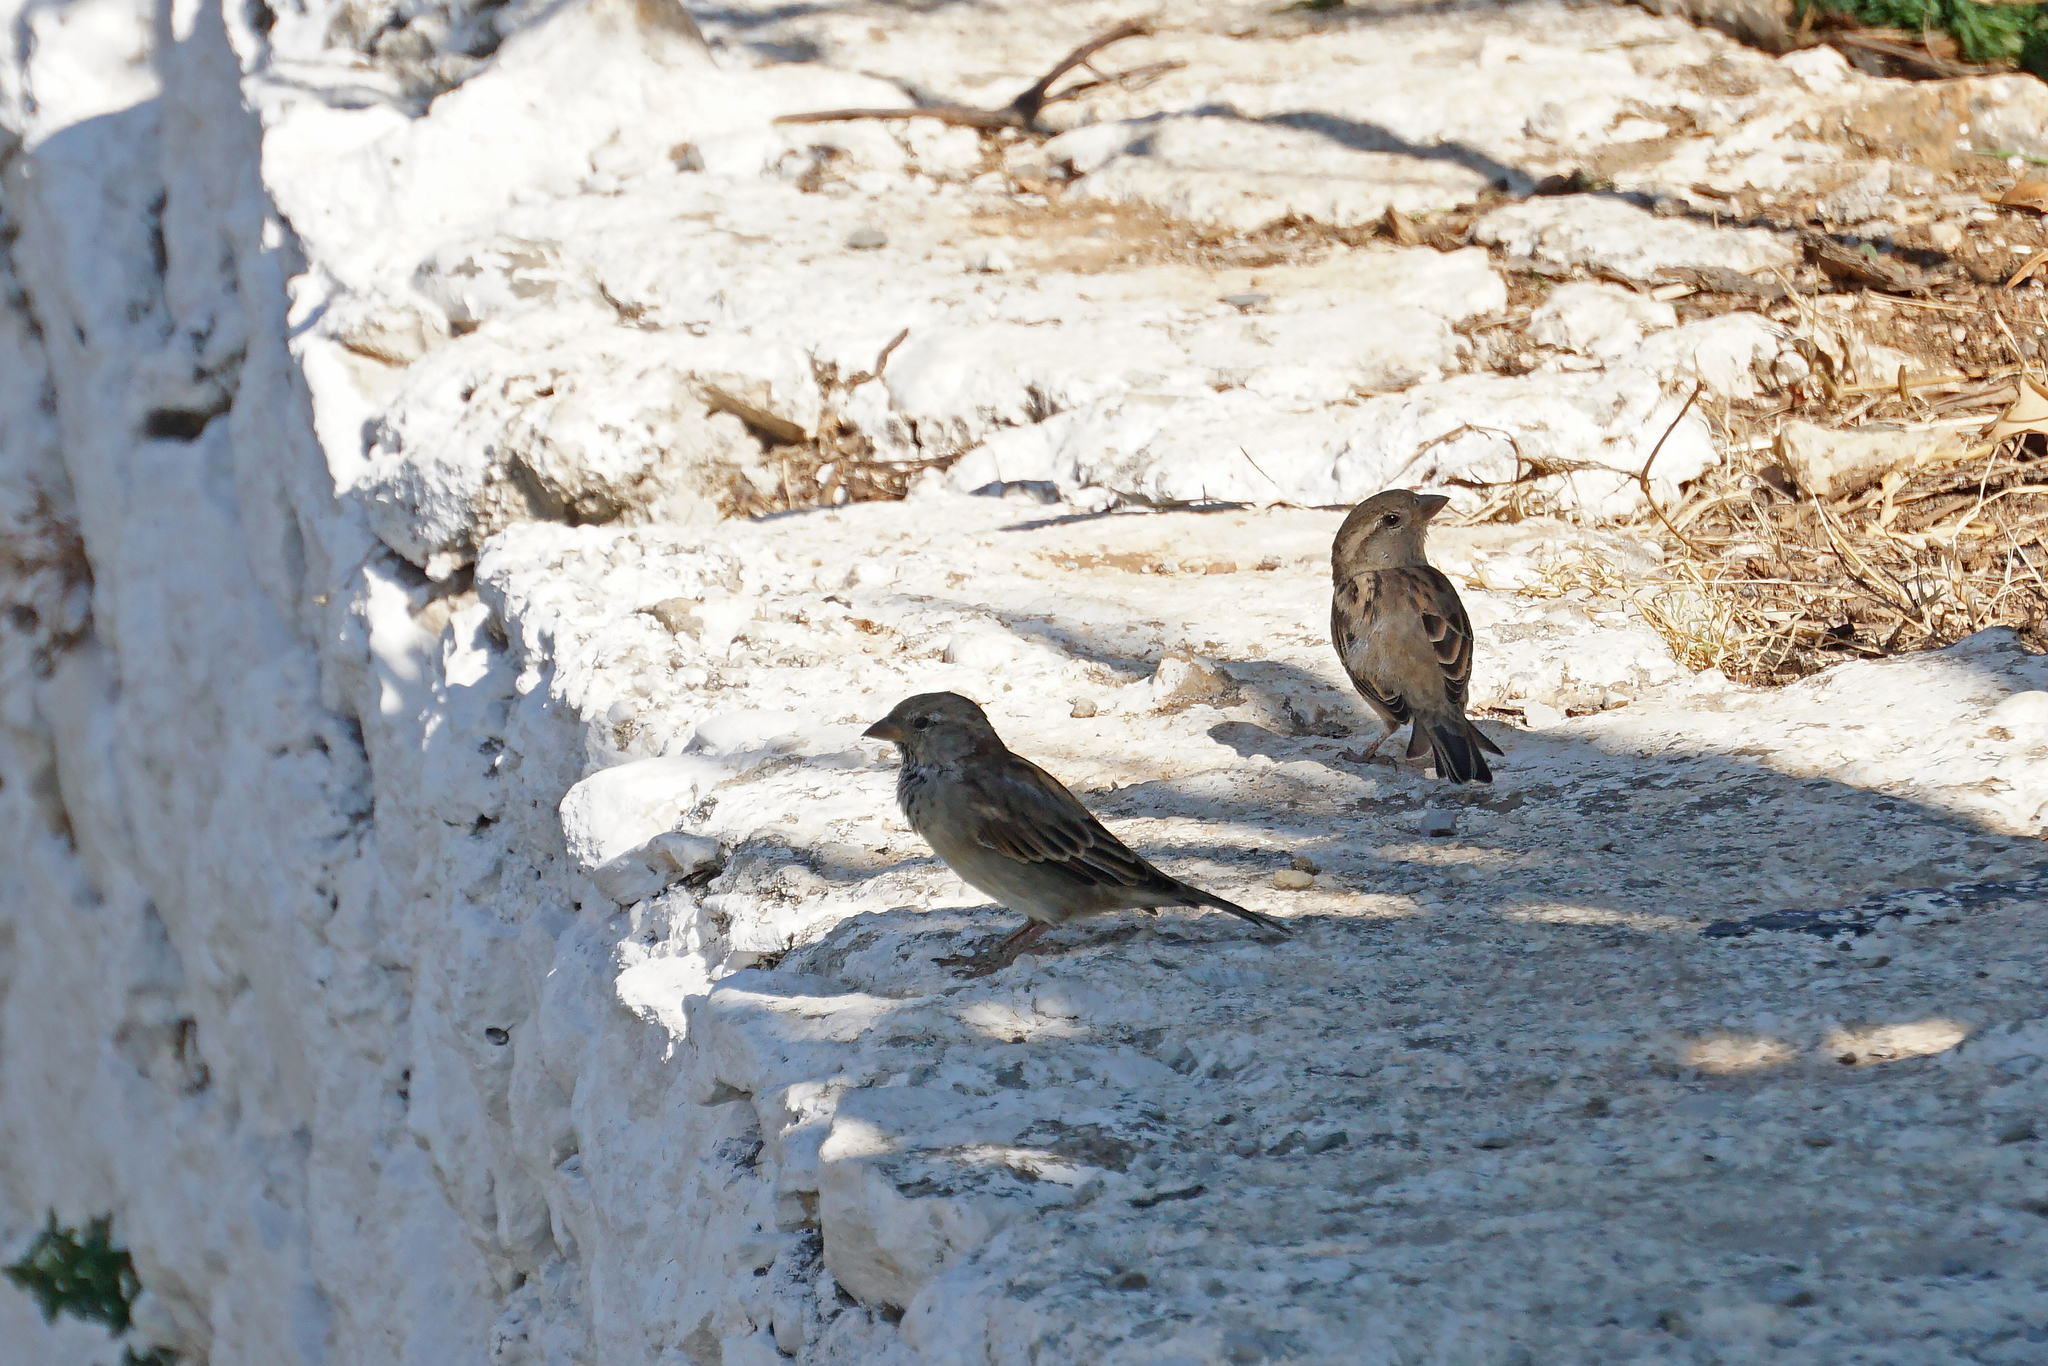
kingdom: Animalia
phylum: Chordata
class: Aves
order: Passeriformes
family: Passeridae
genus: Passer
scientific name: Passer domesticus
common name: House sparrow
